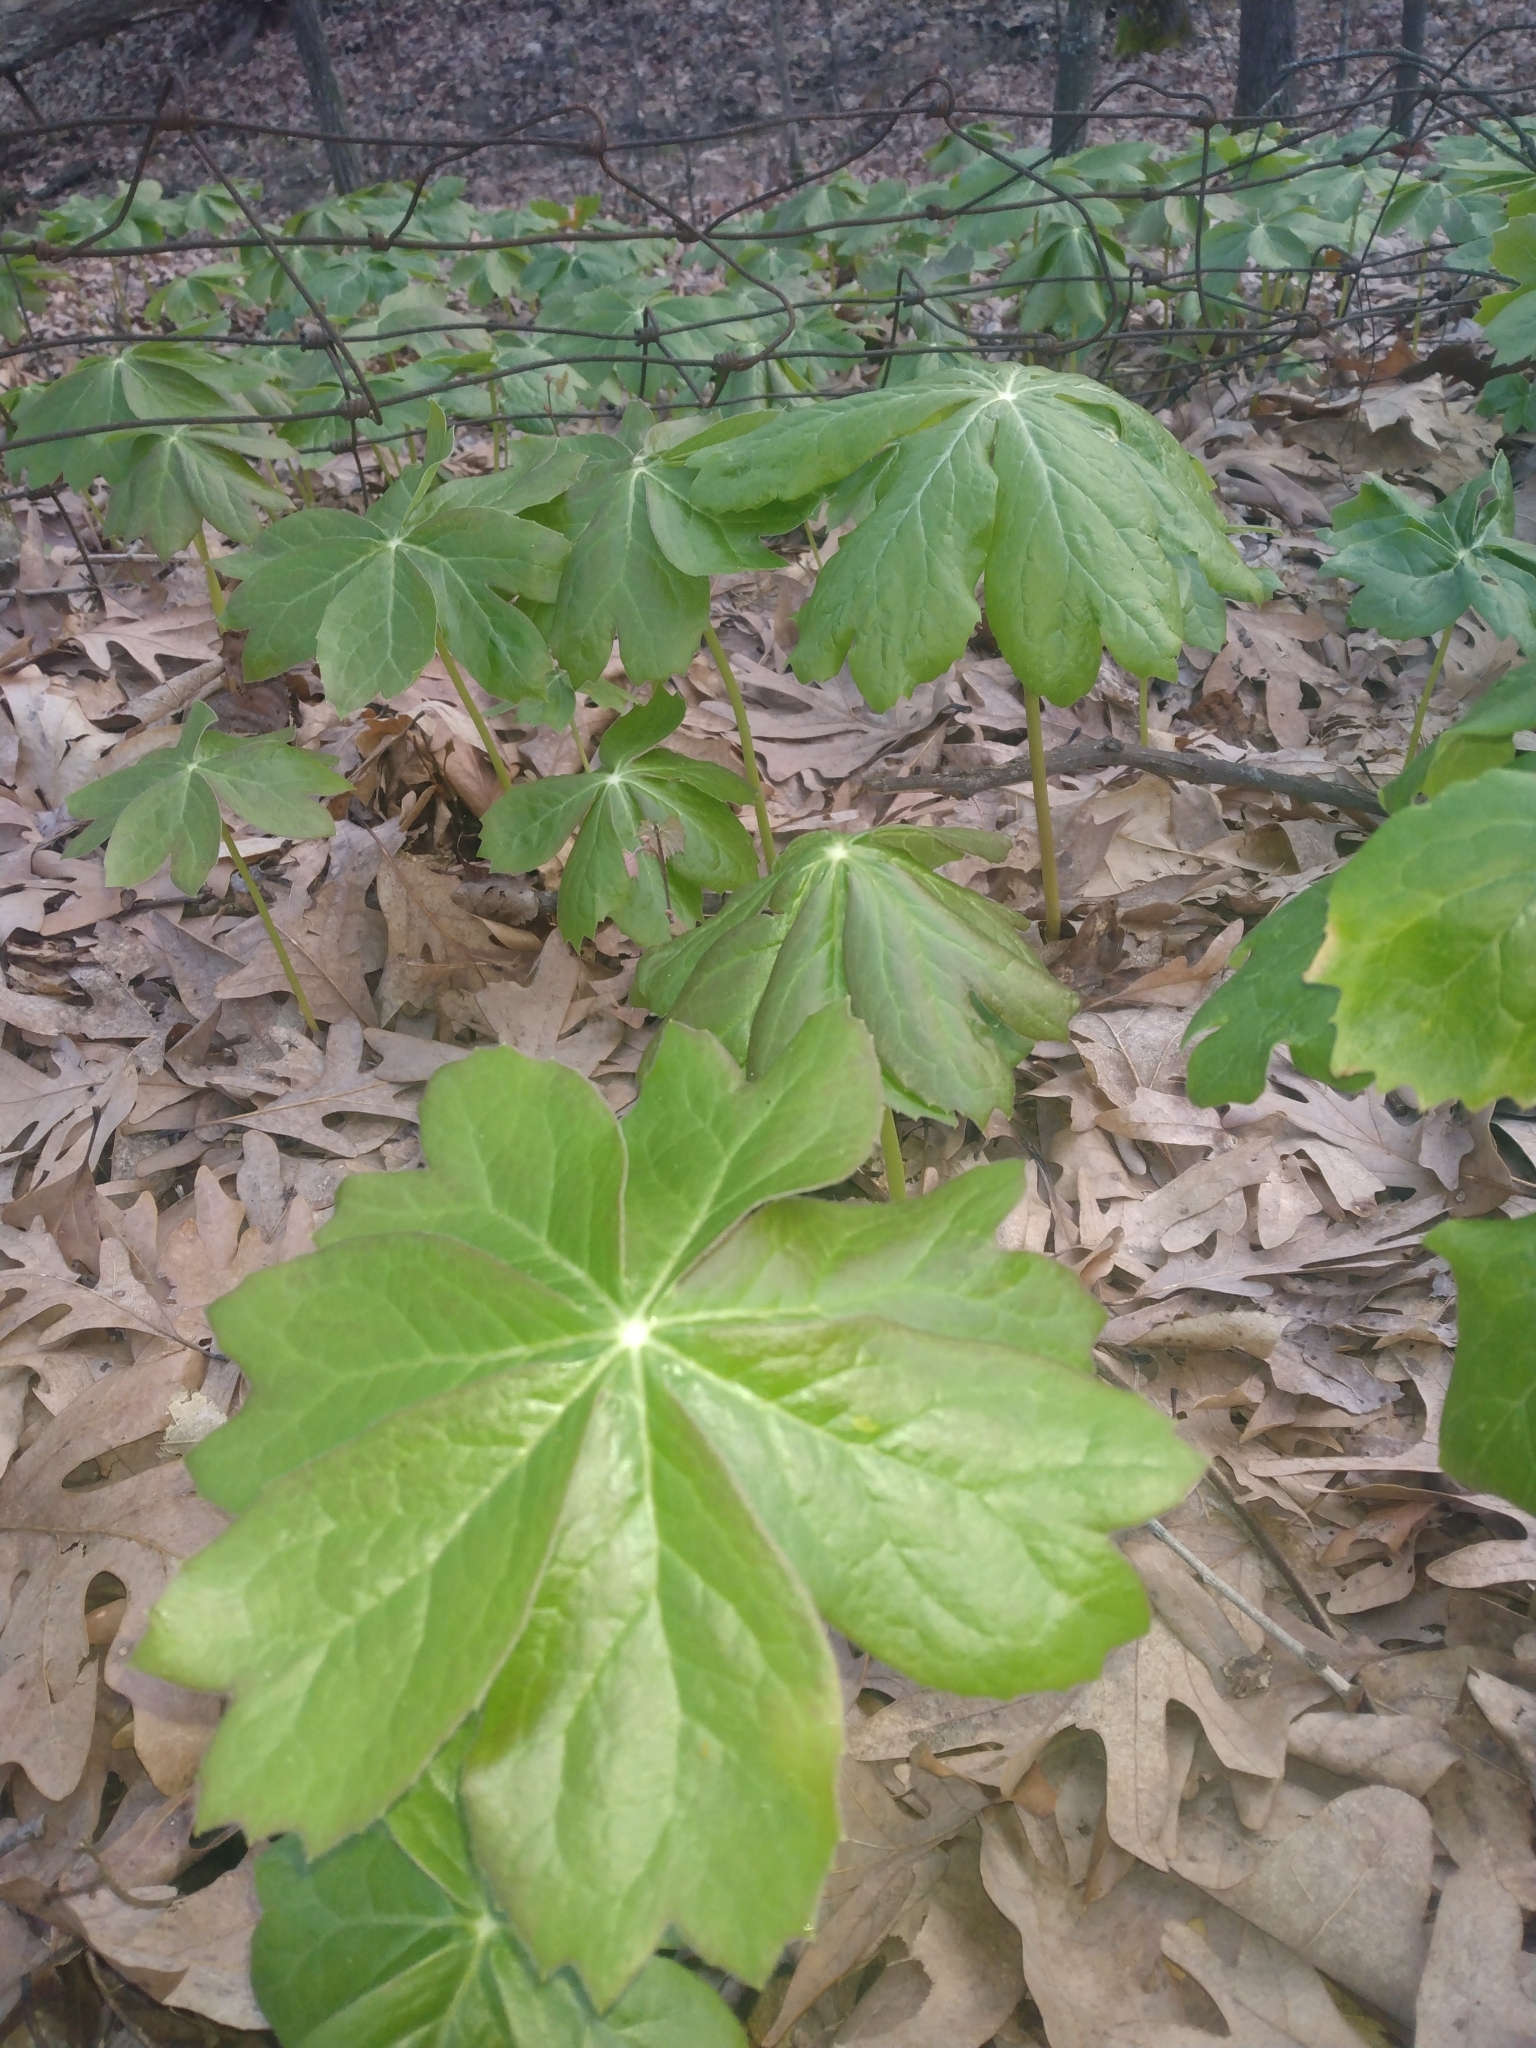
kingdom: Plantae
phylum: Tracheophyta
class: Magnoliopsida
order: Ranunculales
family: Berberidaceae
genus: Podophyllum
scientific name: Podophyllum peltatum
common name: Wild mandrake
